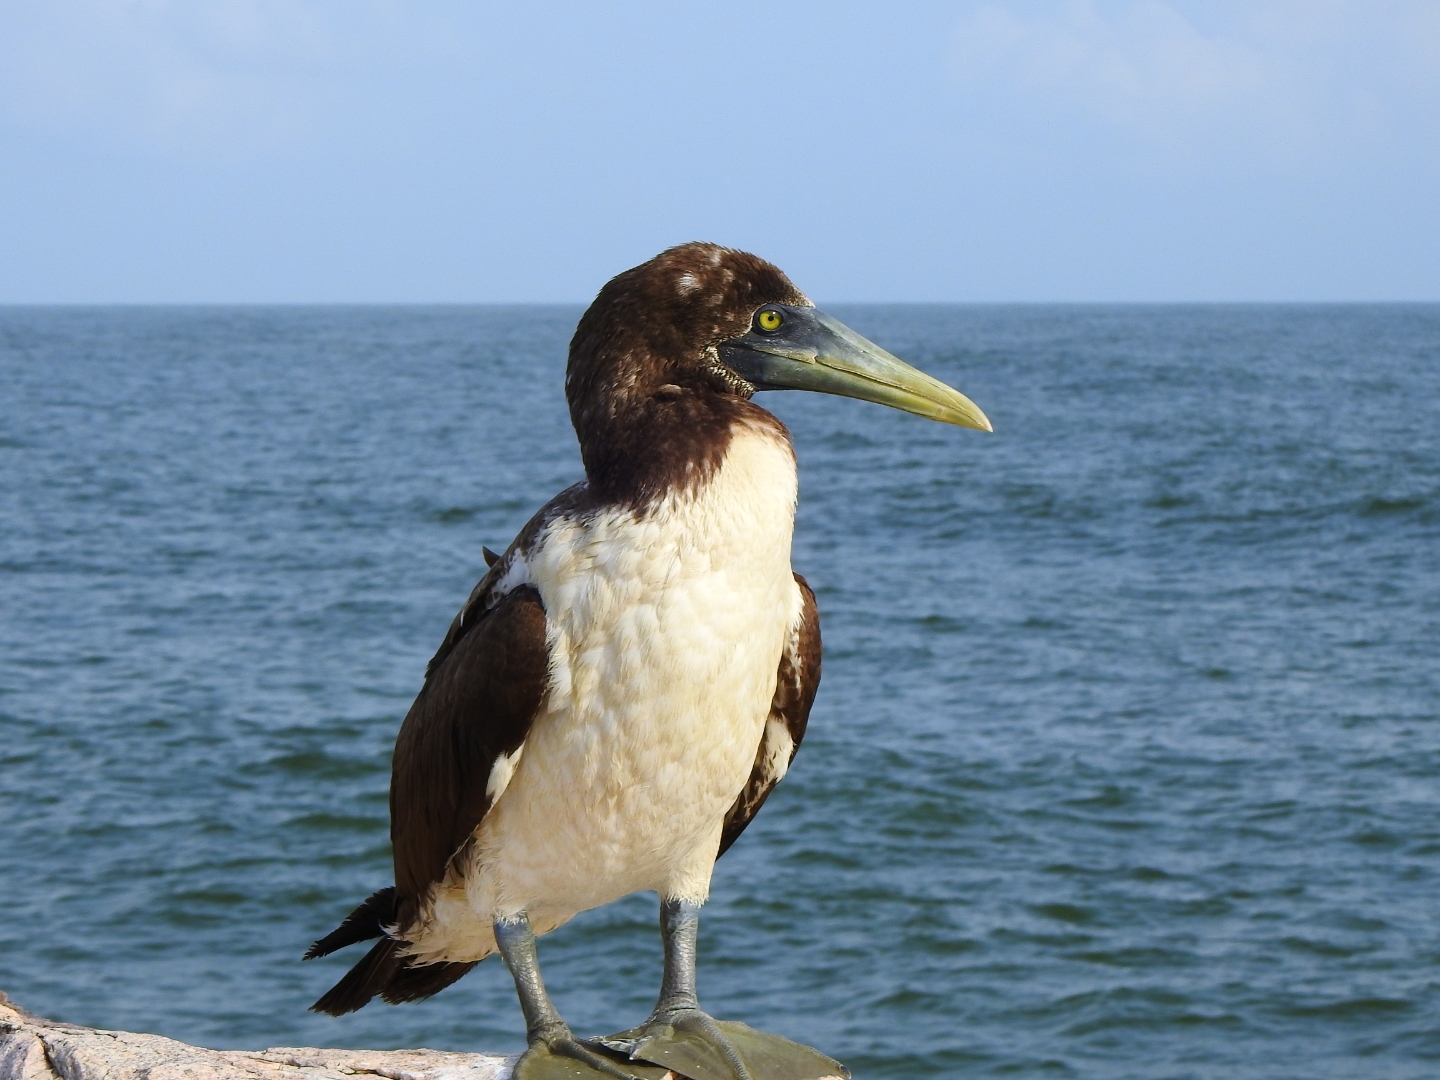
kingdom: Animalia
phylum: Chordata
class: Aves
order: Suliformes
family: Sulidae
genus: Sula
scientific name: Sula dactylatra
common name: Masked booby
